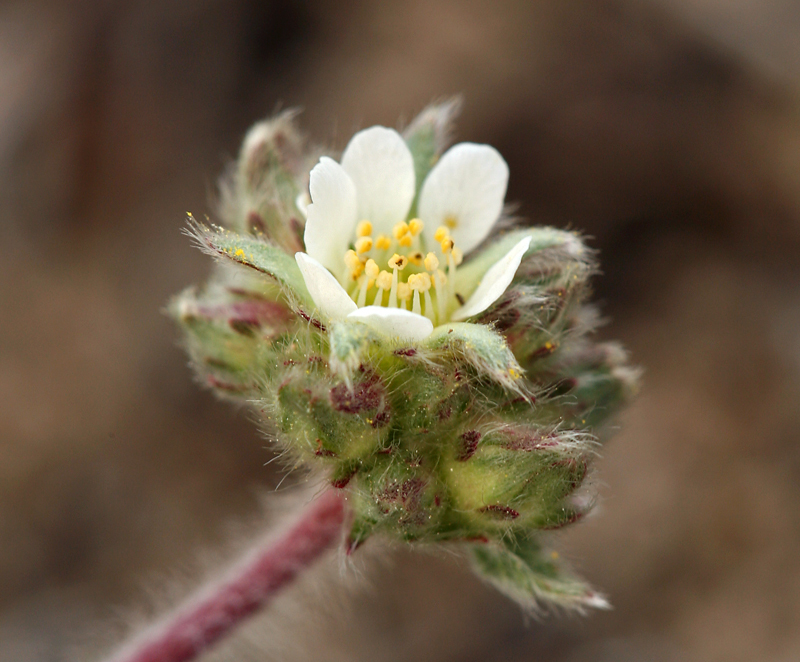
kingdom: Plantae
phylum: Tracheophyta
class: Magnoliopsida
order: Rosales
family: Rosaceae
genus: Potentilla
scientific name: Potentilla argyrocoma
